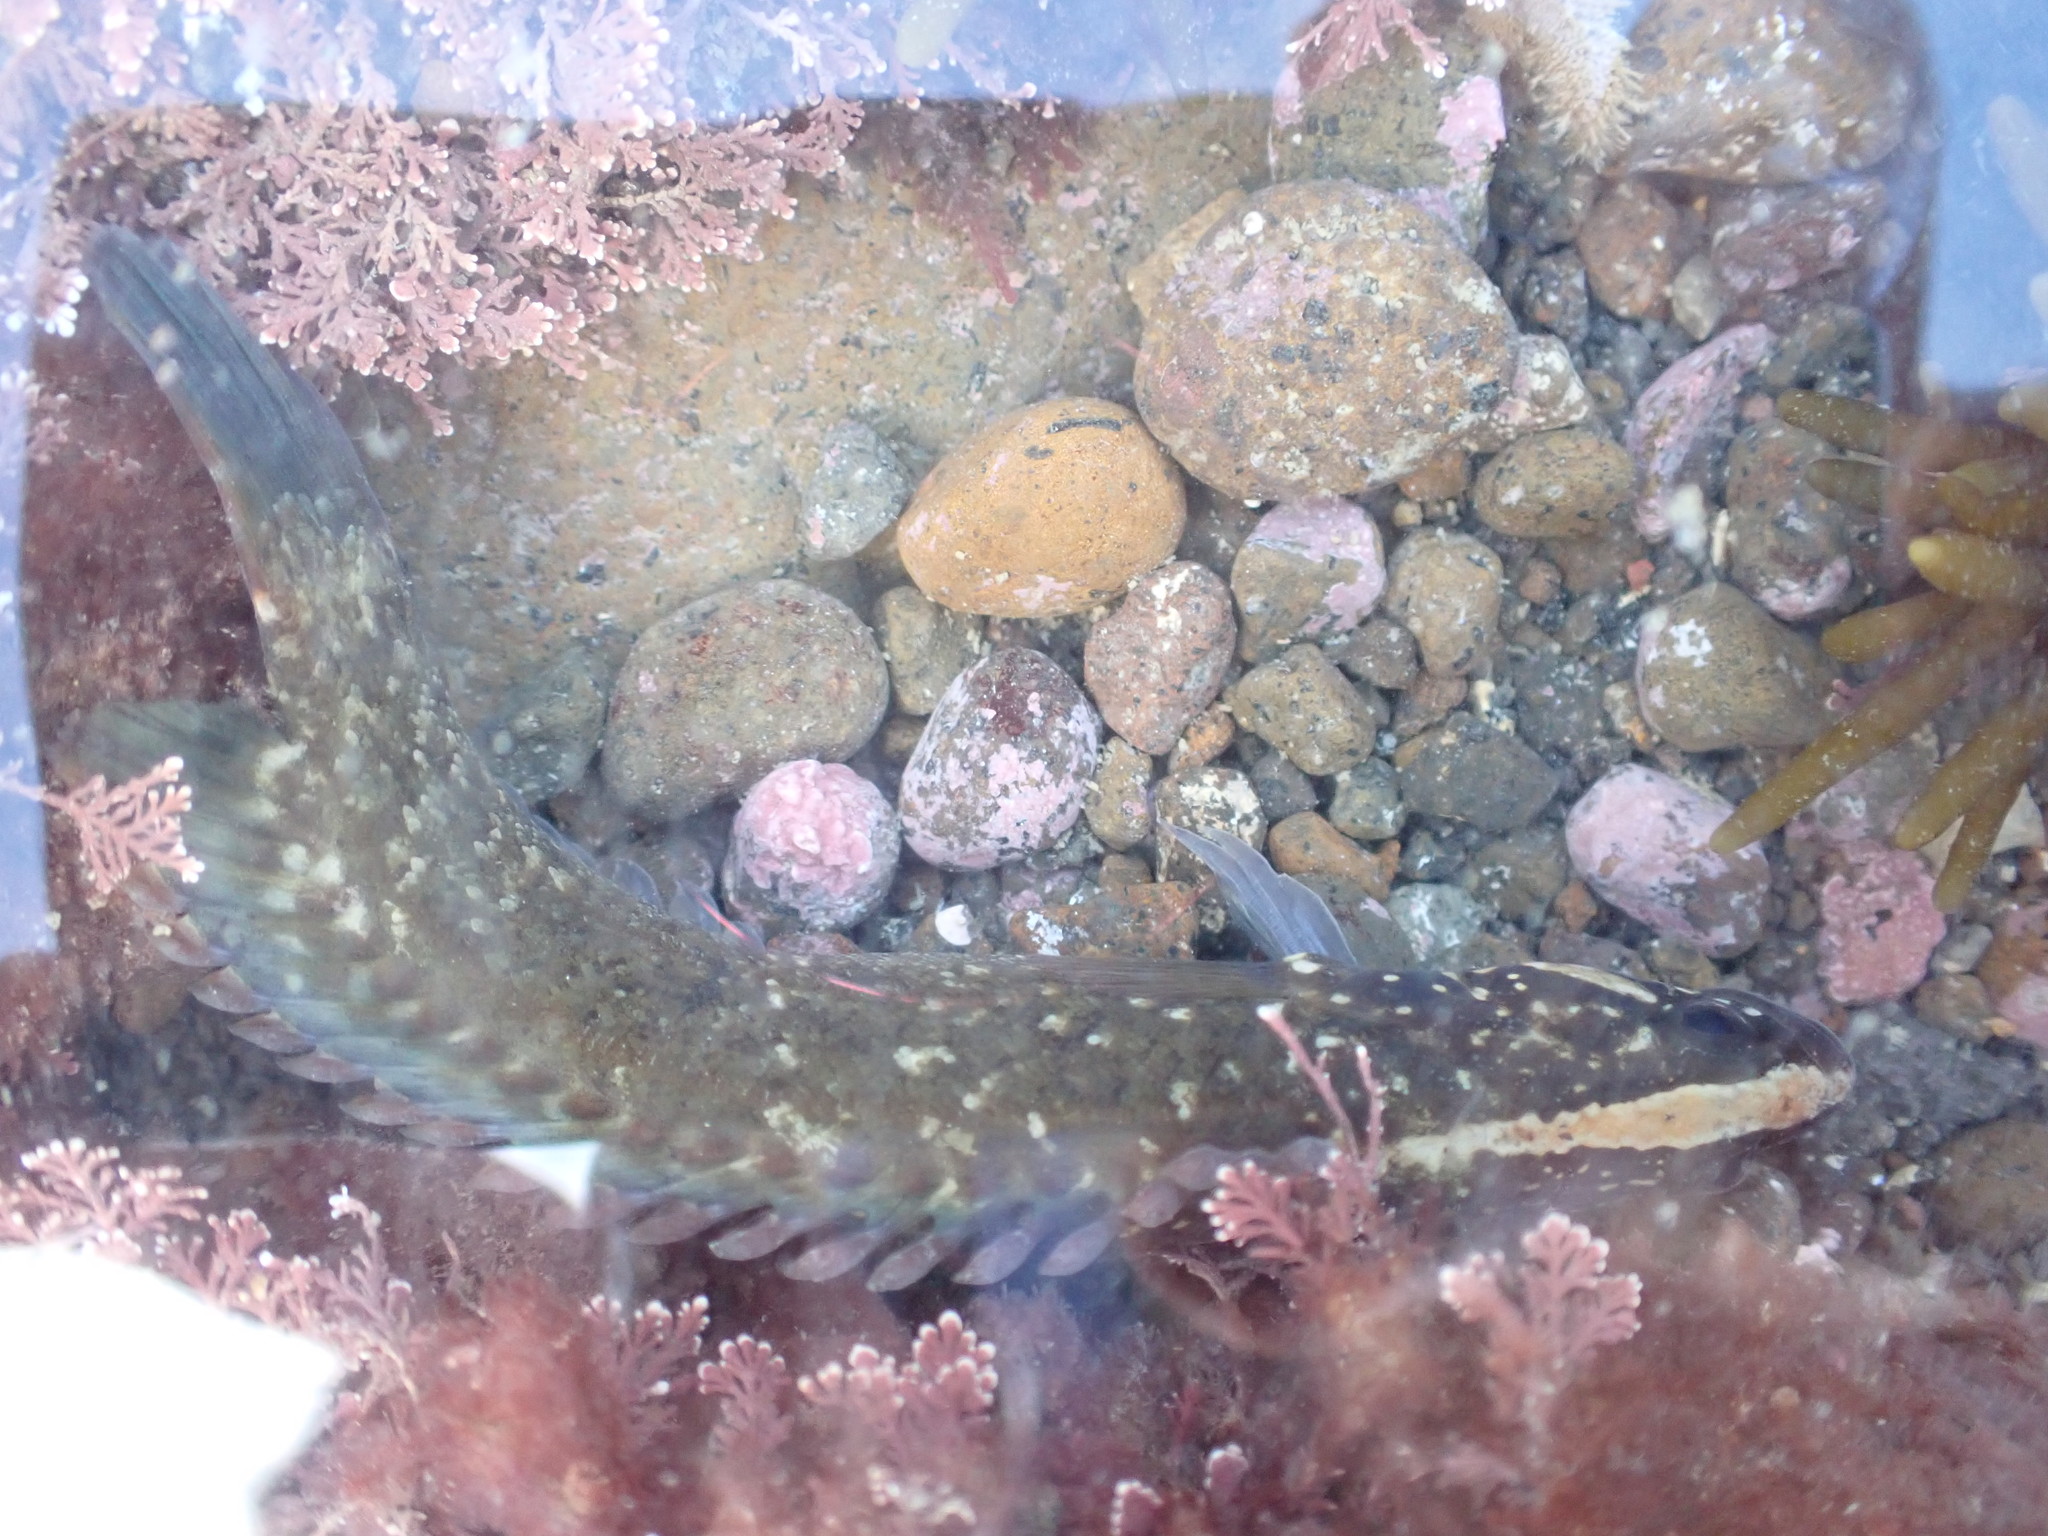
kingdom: Animalia
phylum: Chordata
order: Perciformes
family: Plesiopidae
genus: Acanthoclinus
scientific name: Acanthoclinus fuscus
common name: Olive rockfish
